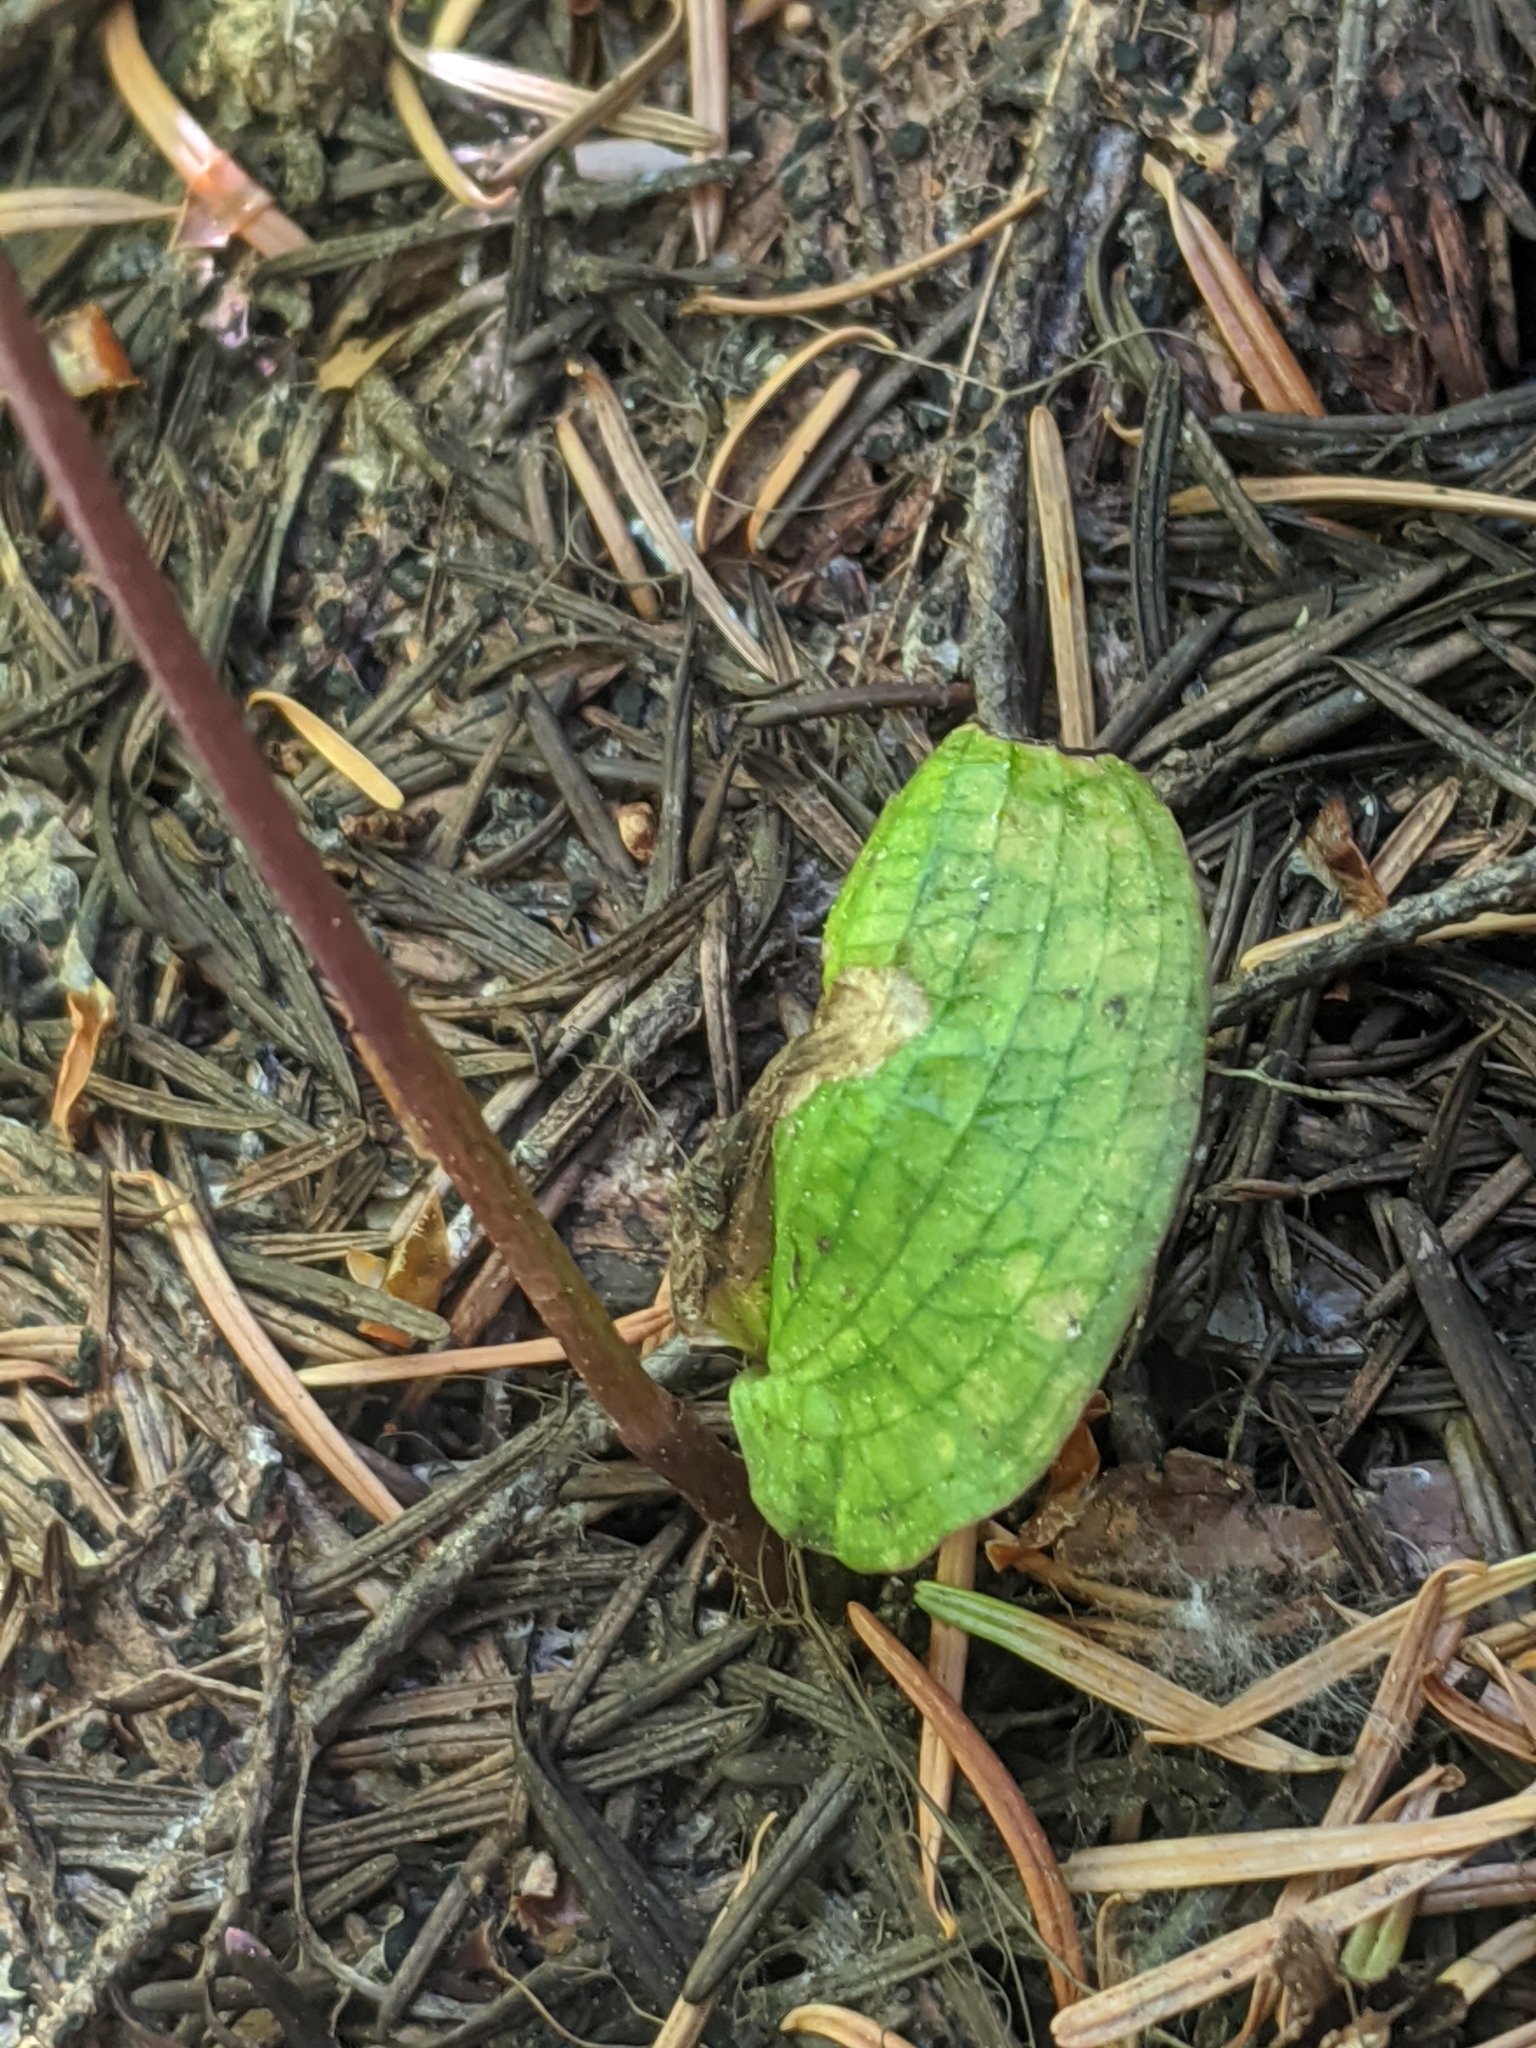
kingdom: Plantae
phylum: Tracheophyta
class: Liliopsida
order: Asparagales
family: Orchidaceae
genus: Calypso
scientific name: Calypso bulbosa
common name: Calypso
